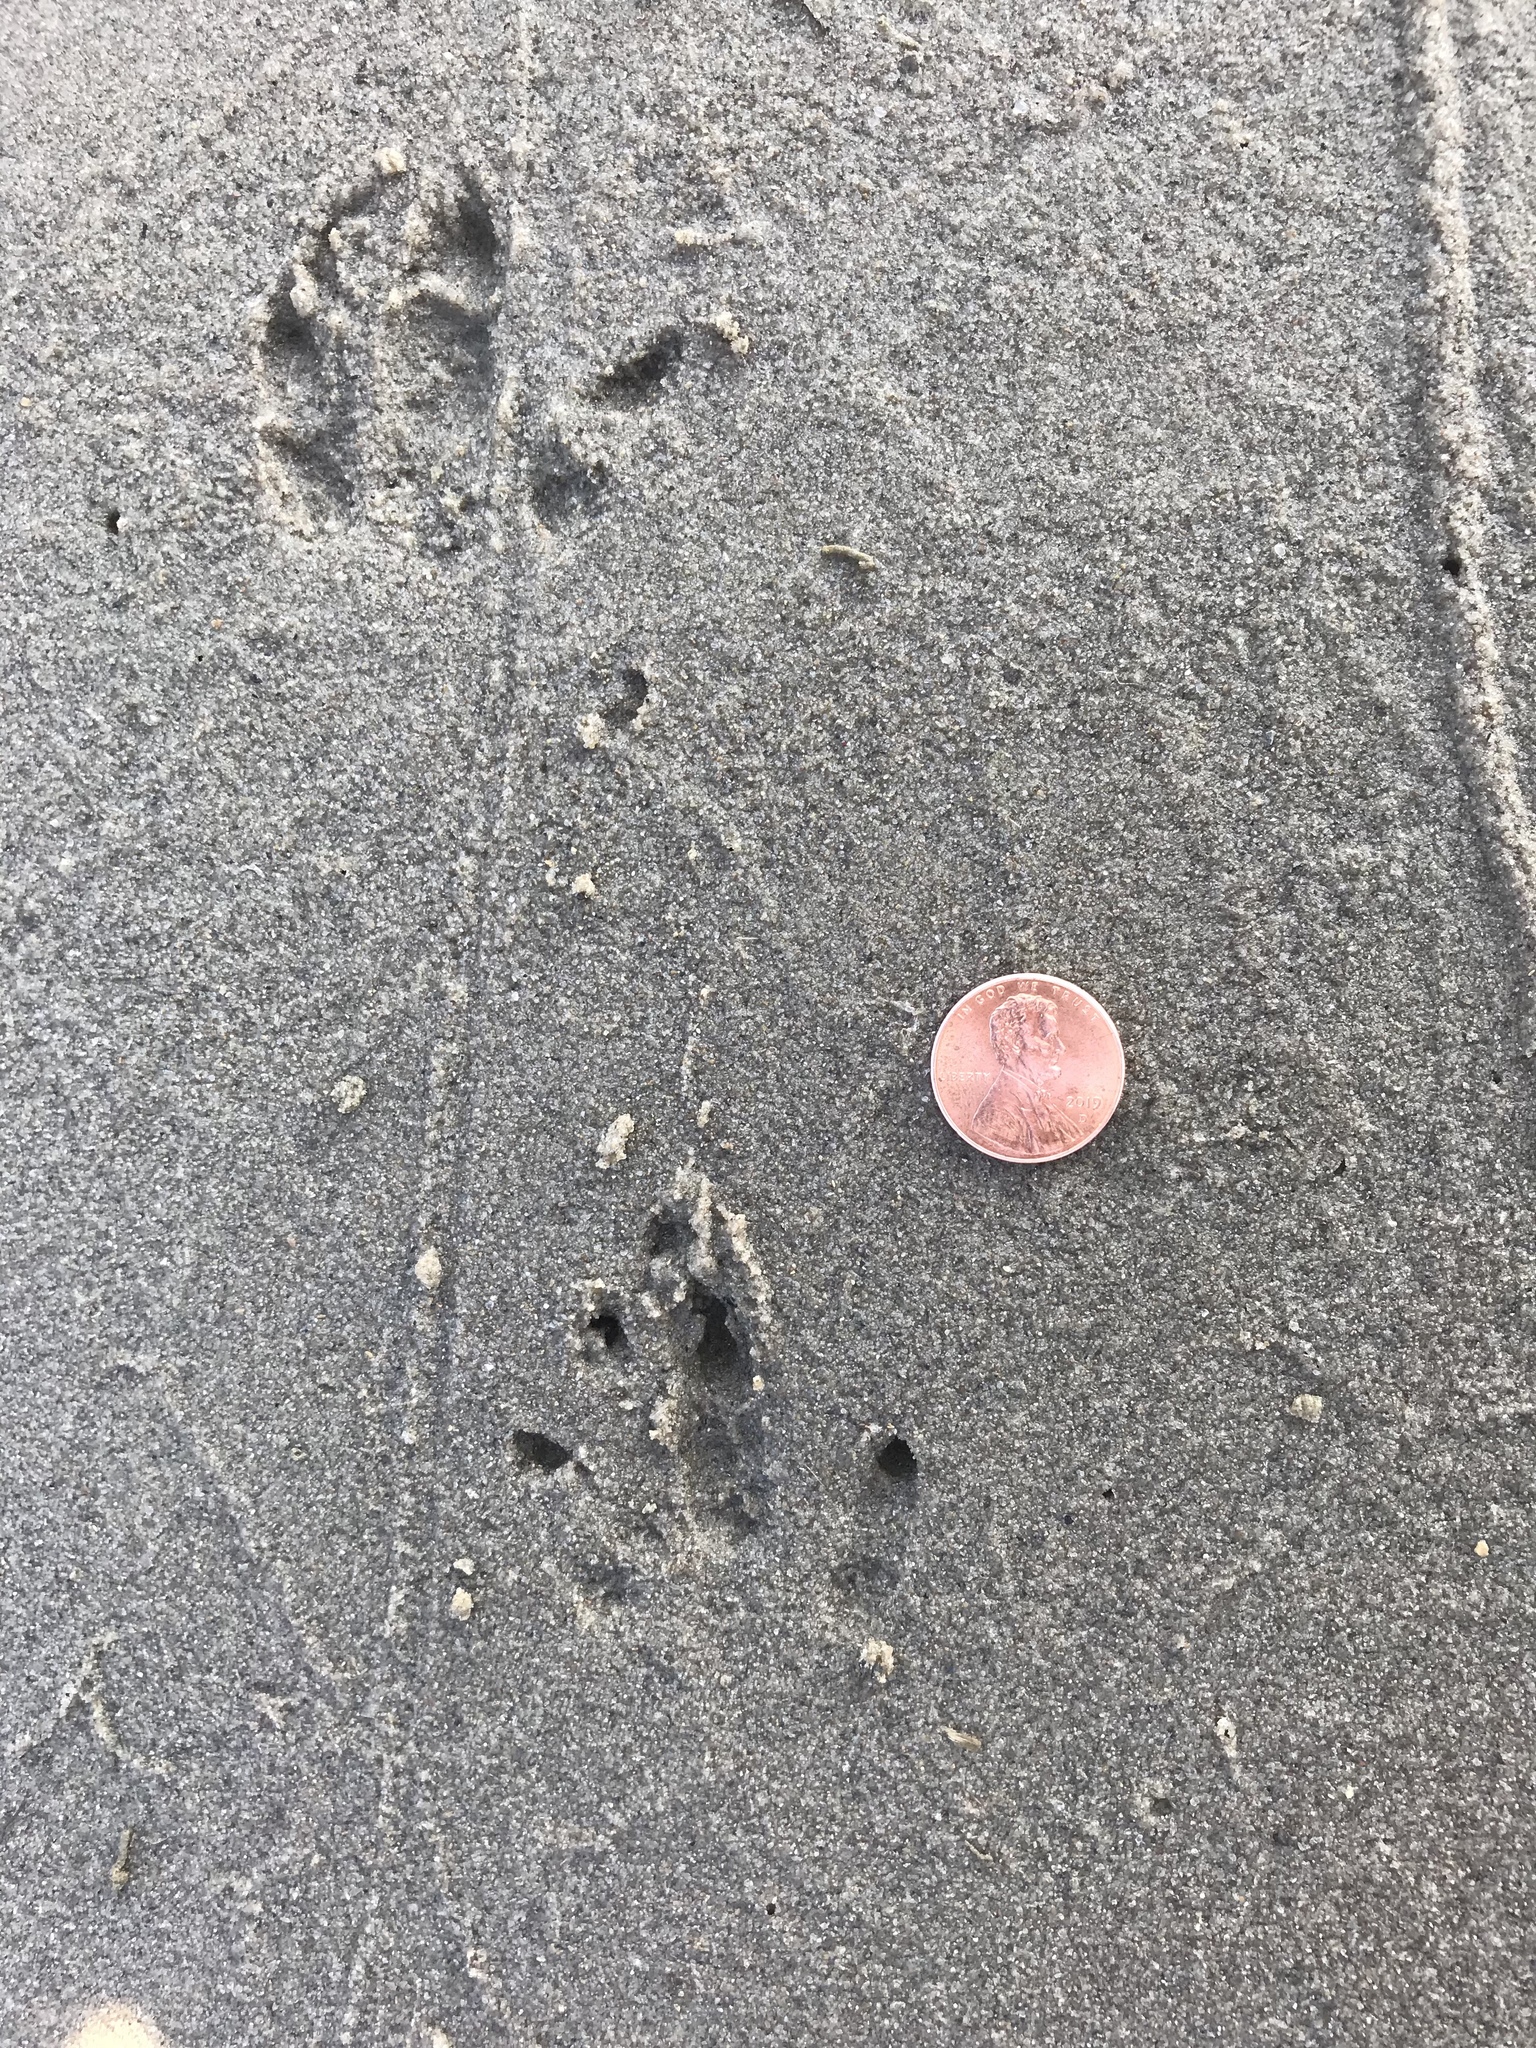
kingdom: Animalia
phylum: Chordata
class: Mammalia
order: Cingulata
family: Dasypodidae
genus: Dasypus
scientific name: Dasypus novemcinctus
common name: Nine-banded armadillo
